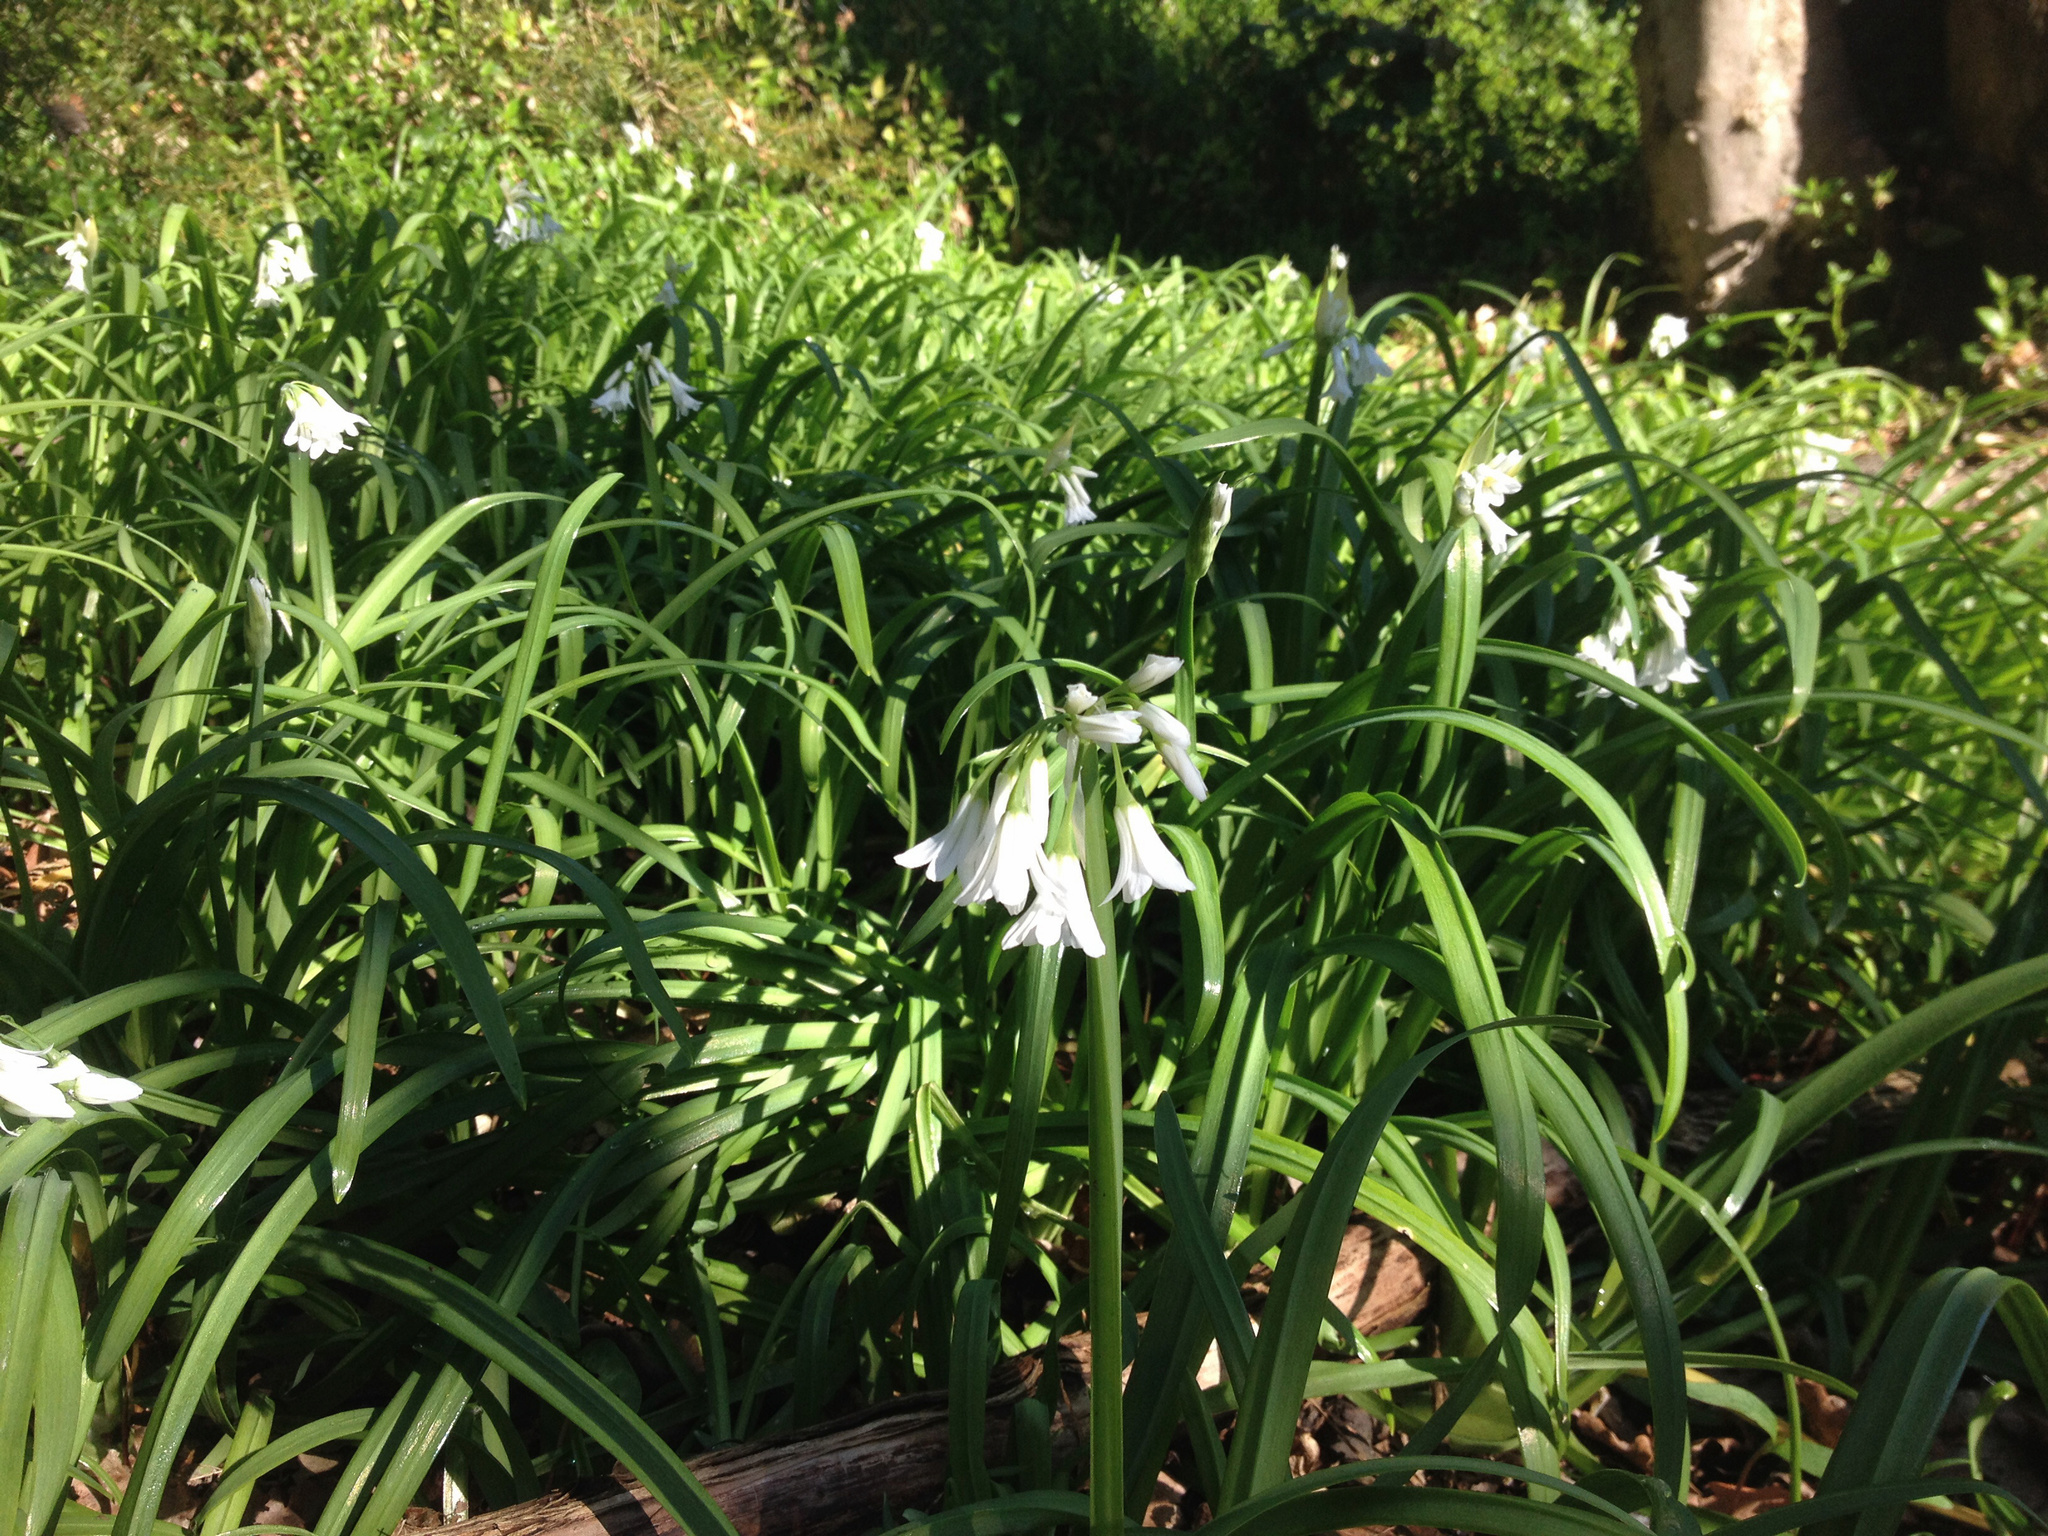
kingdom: Plantae
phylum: Tracheophyta
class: Liliopsida
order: Asparagales
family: Amaryllidaceae
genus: Allium
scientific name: Allium triquetrum
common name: Three-cornered garlic
